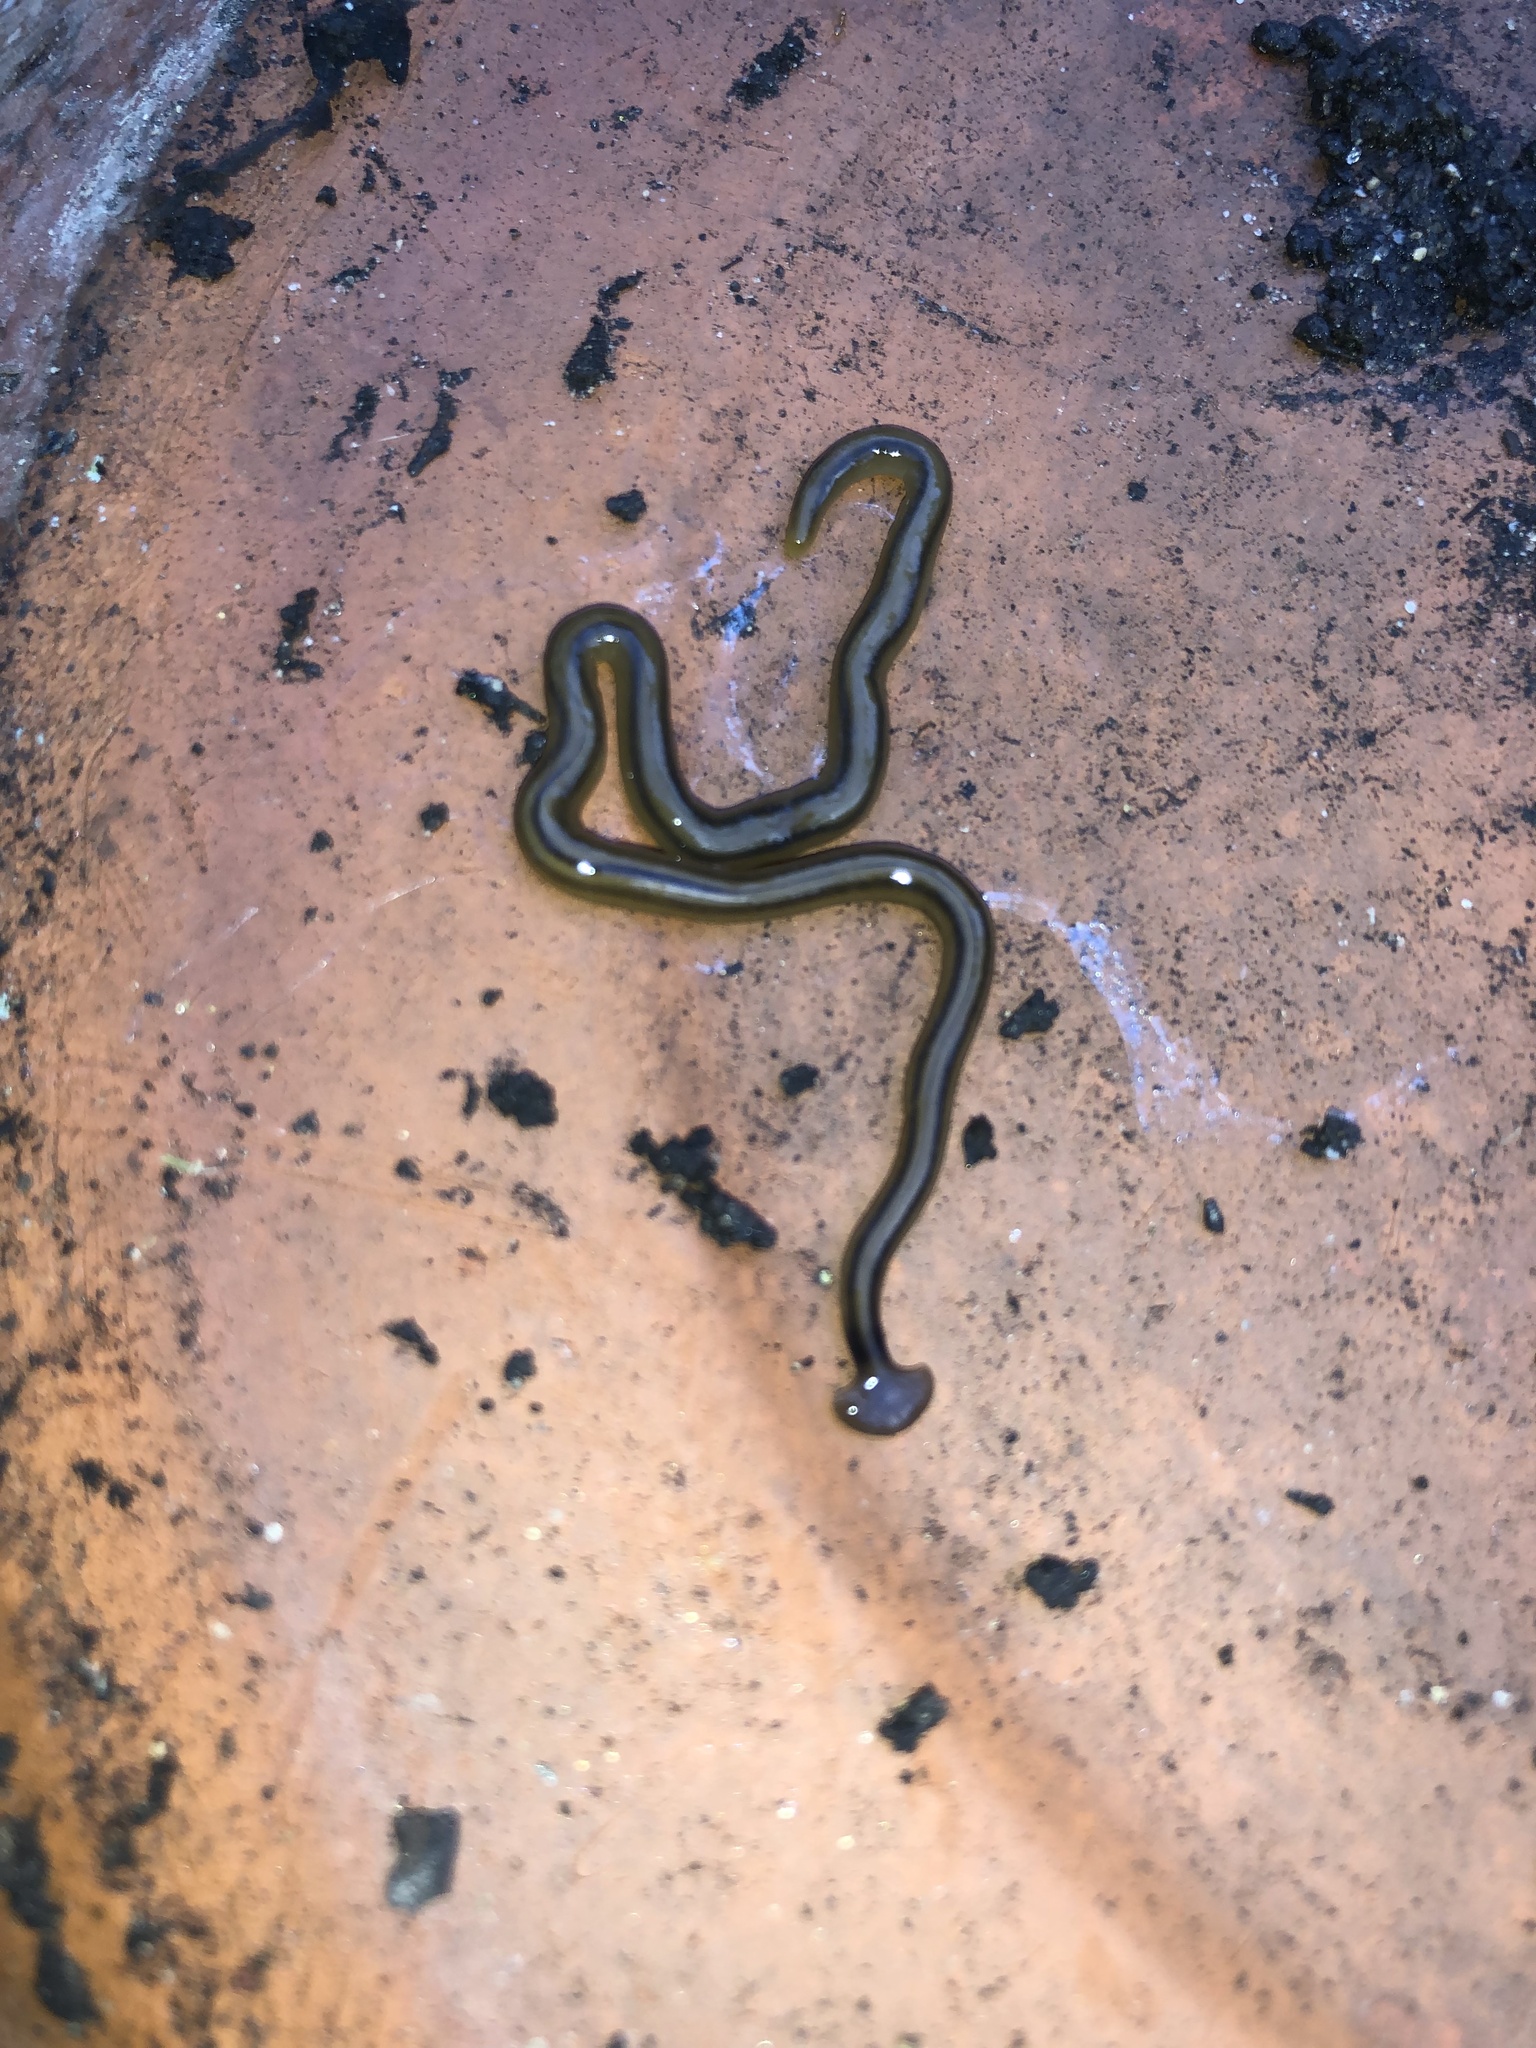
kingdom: Animalia
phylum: Platyhelminthes
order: Tricladida
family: Geoplanidae
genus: Bipalium
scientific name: Bipalium kewense
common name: Hammerhead flatworm
